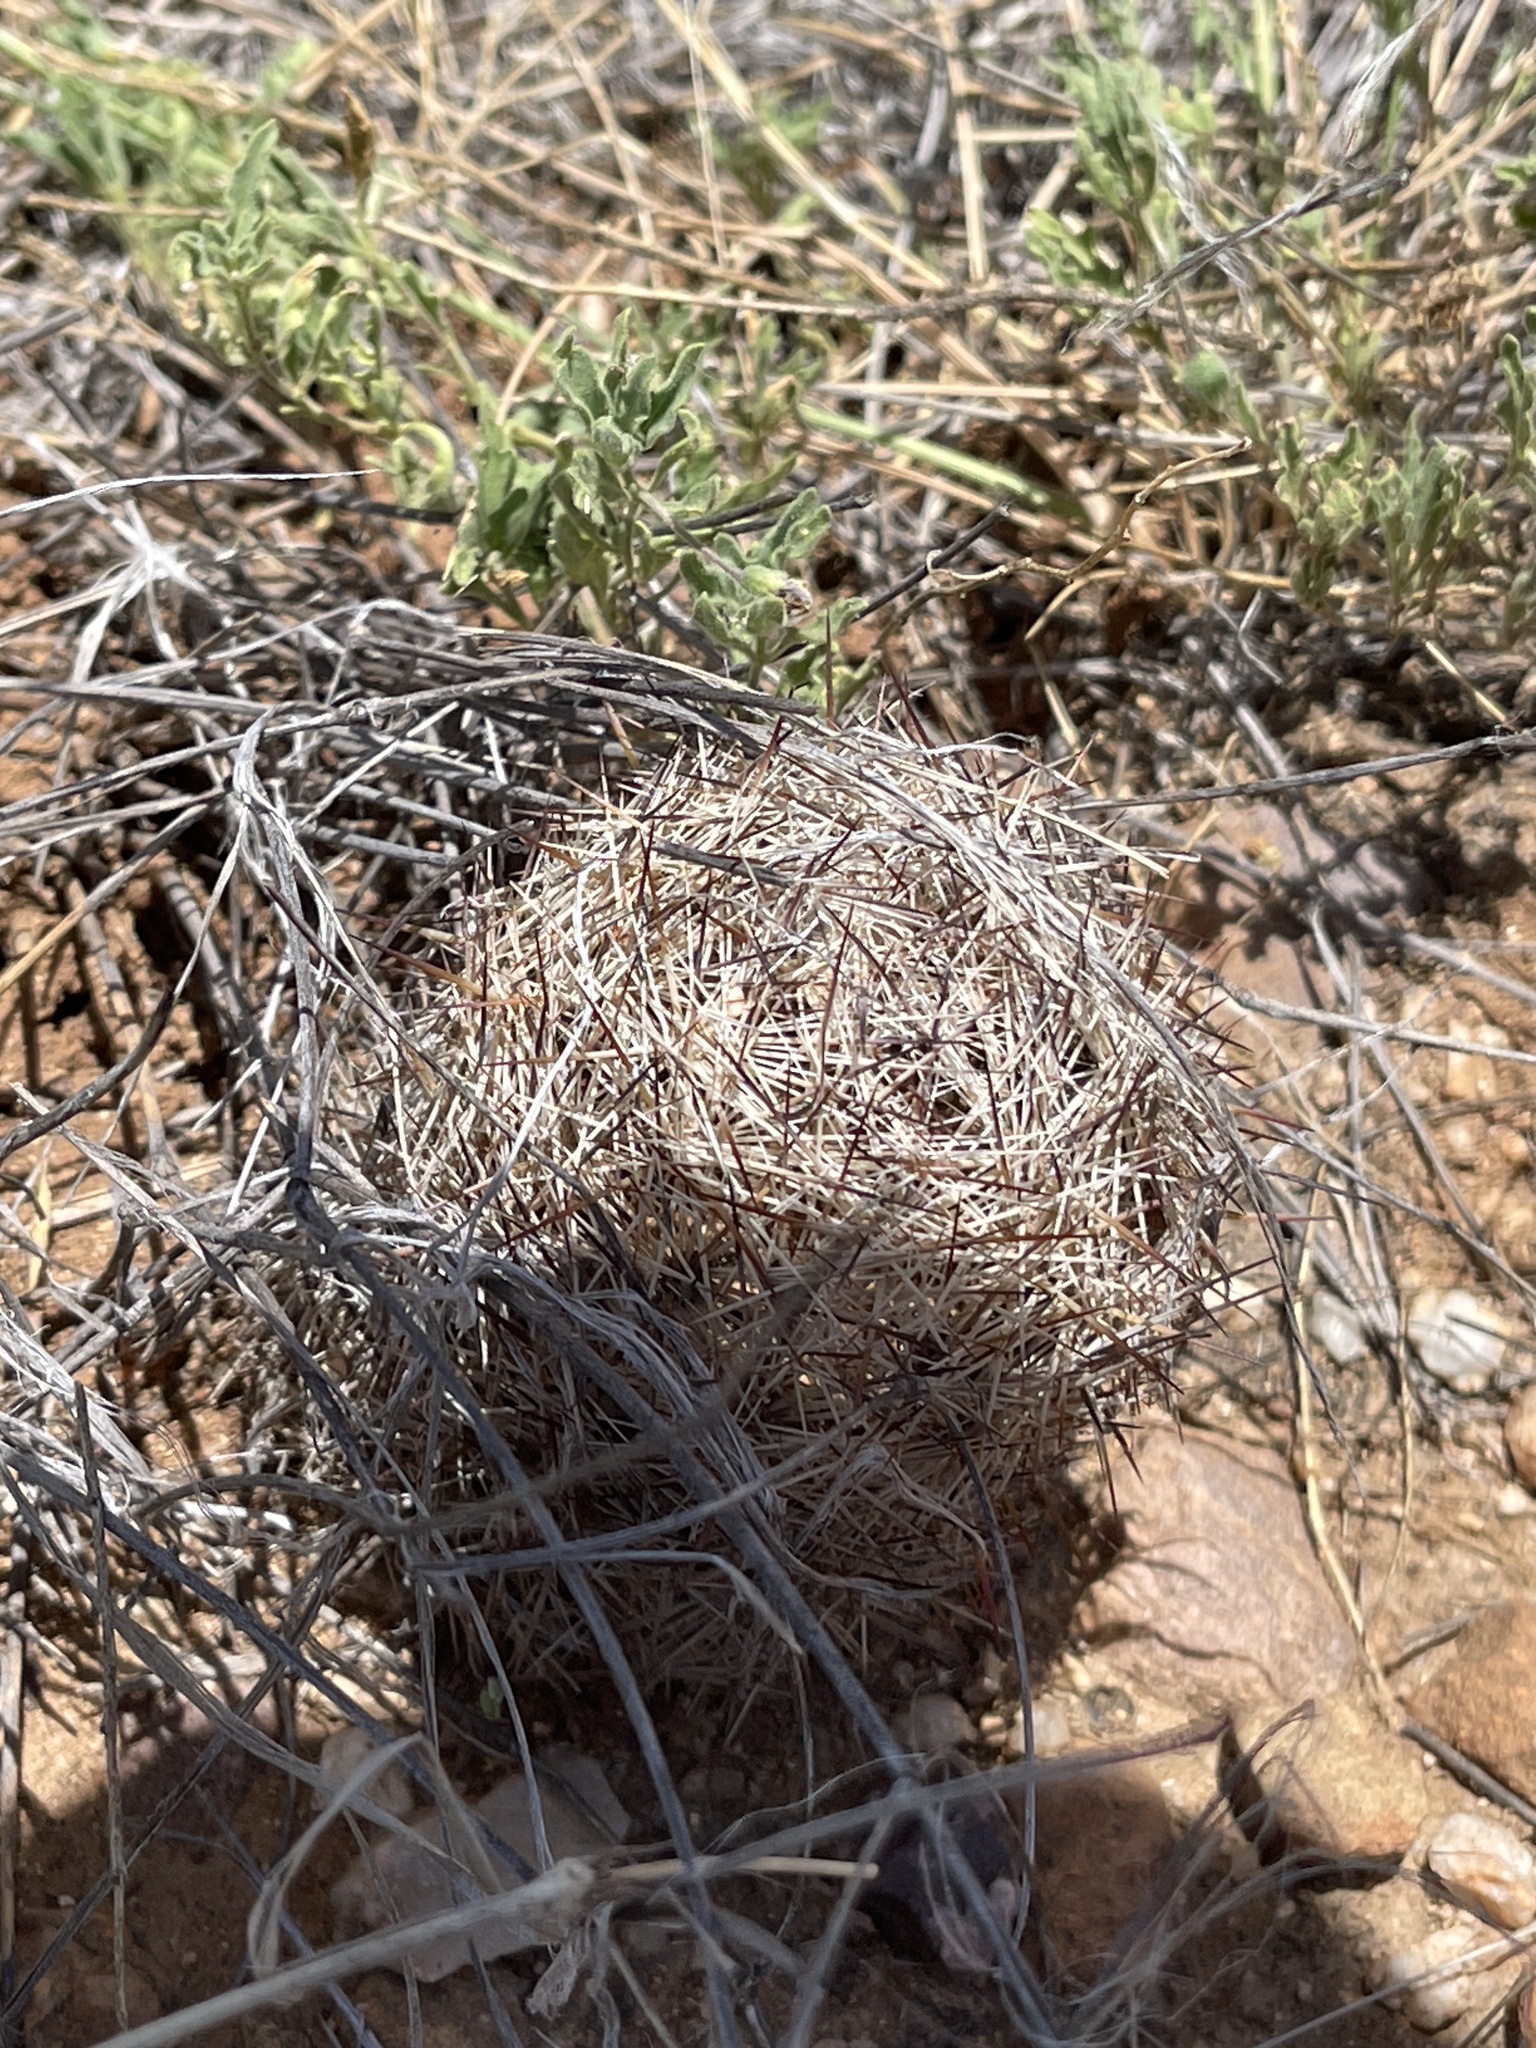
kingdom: Plantae
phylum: Tracheophyta
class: Magnoliopsida
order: Caryophyllales
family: Cactaceae
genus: Sclerocactus
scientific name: Sclerocactus intertextus
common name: White fish-hook cactus
